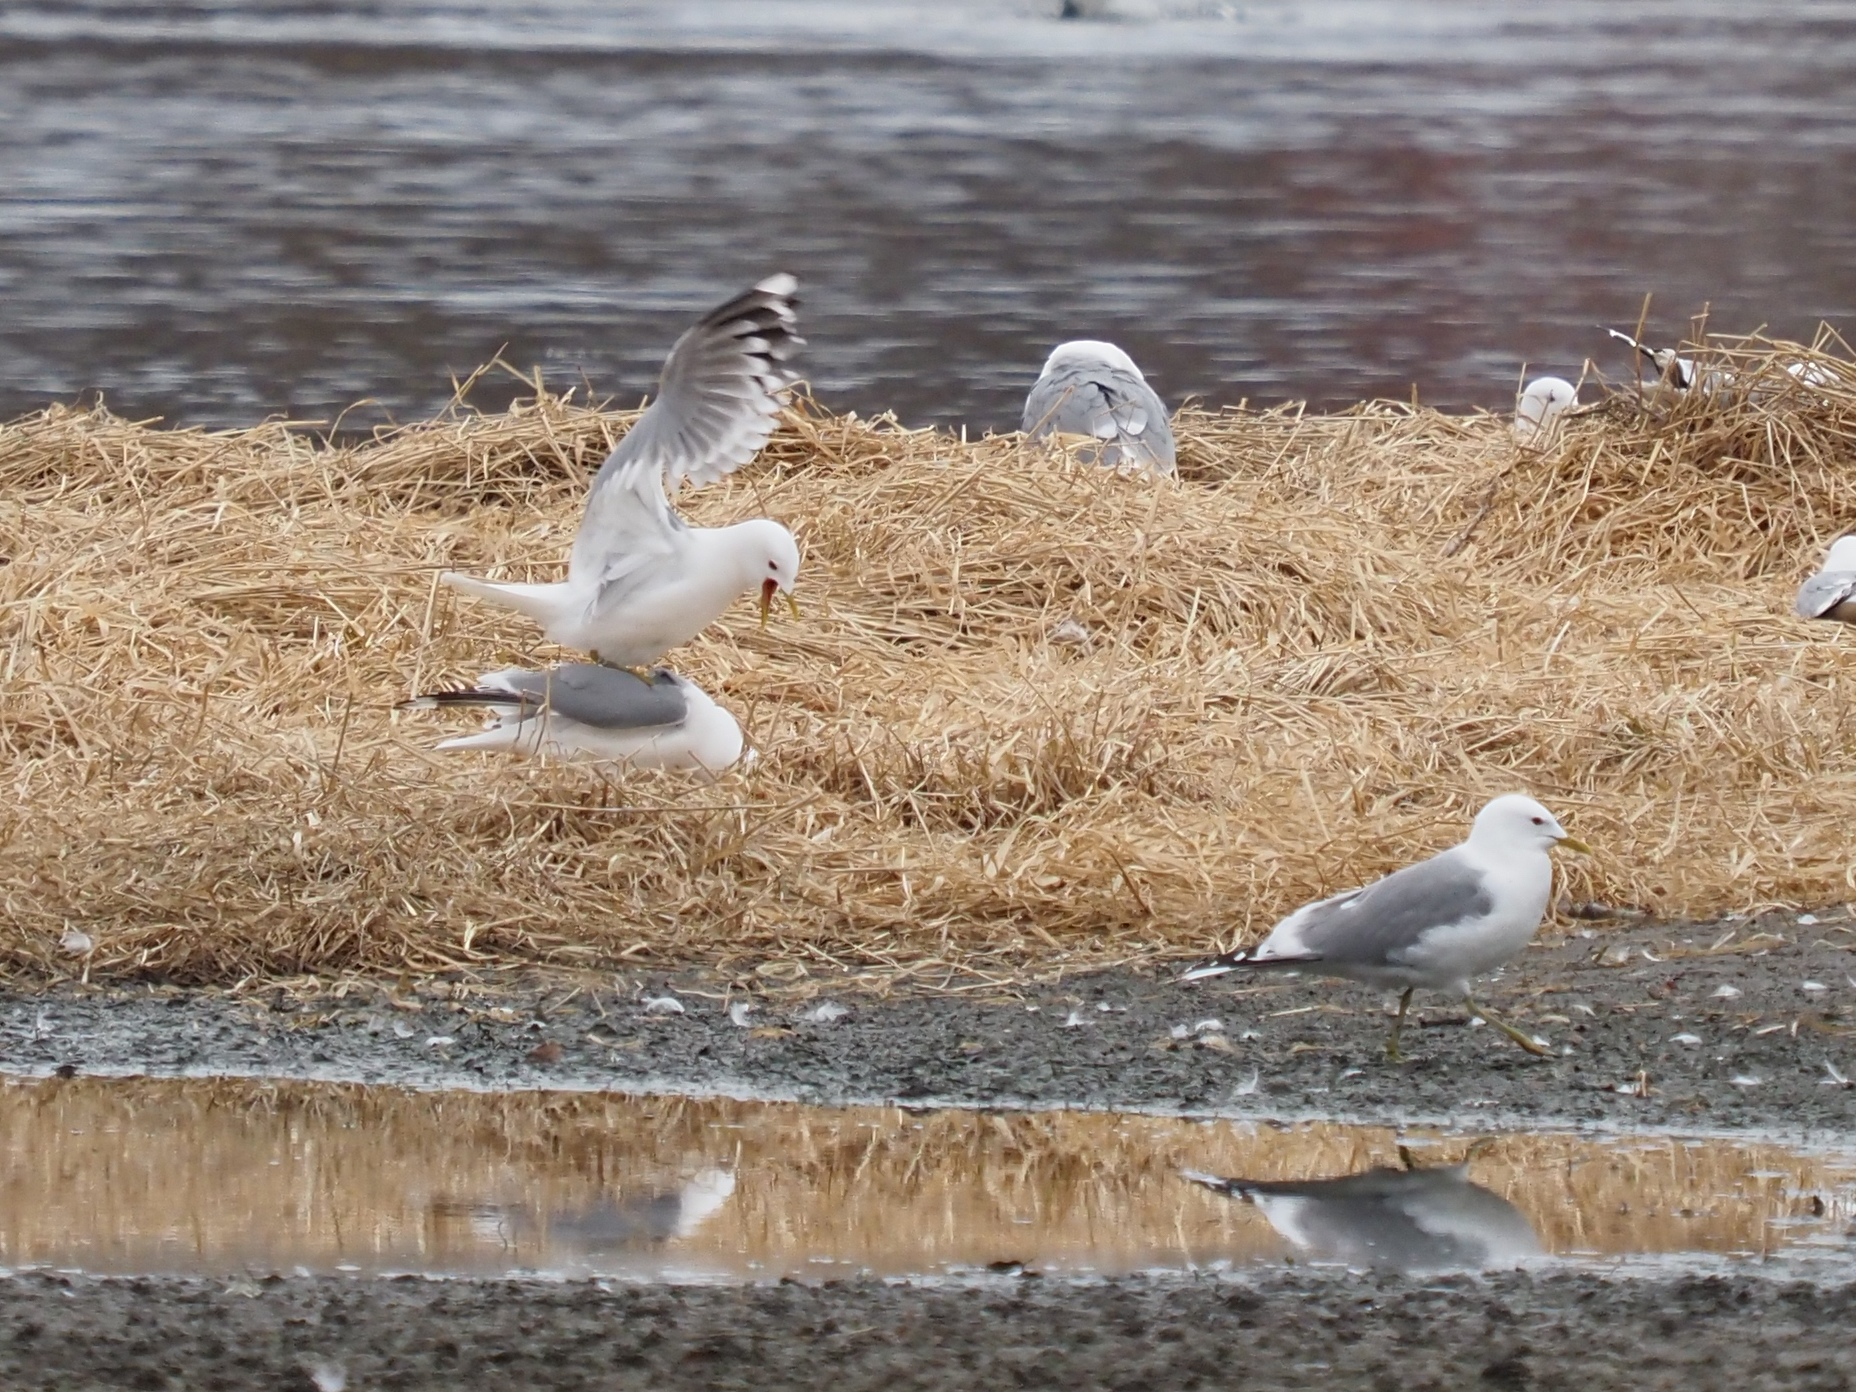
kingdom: Animalia
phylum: Chordata
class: Aves
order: Charadriiformes
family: Laridae
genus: Larus
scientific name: Larus brachyrhynchus
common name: Short-billed gull
